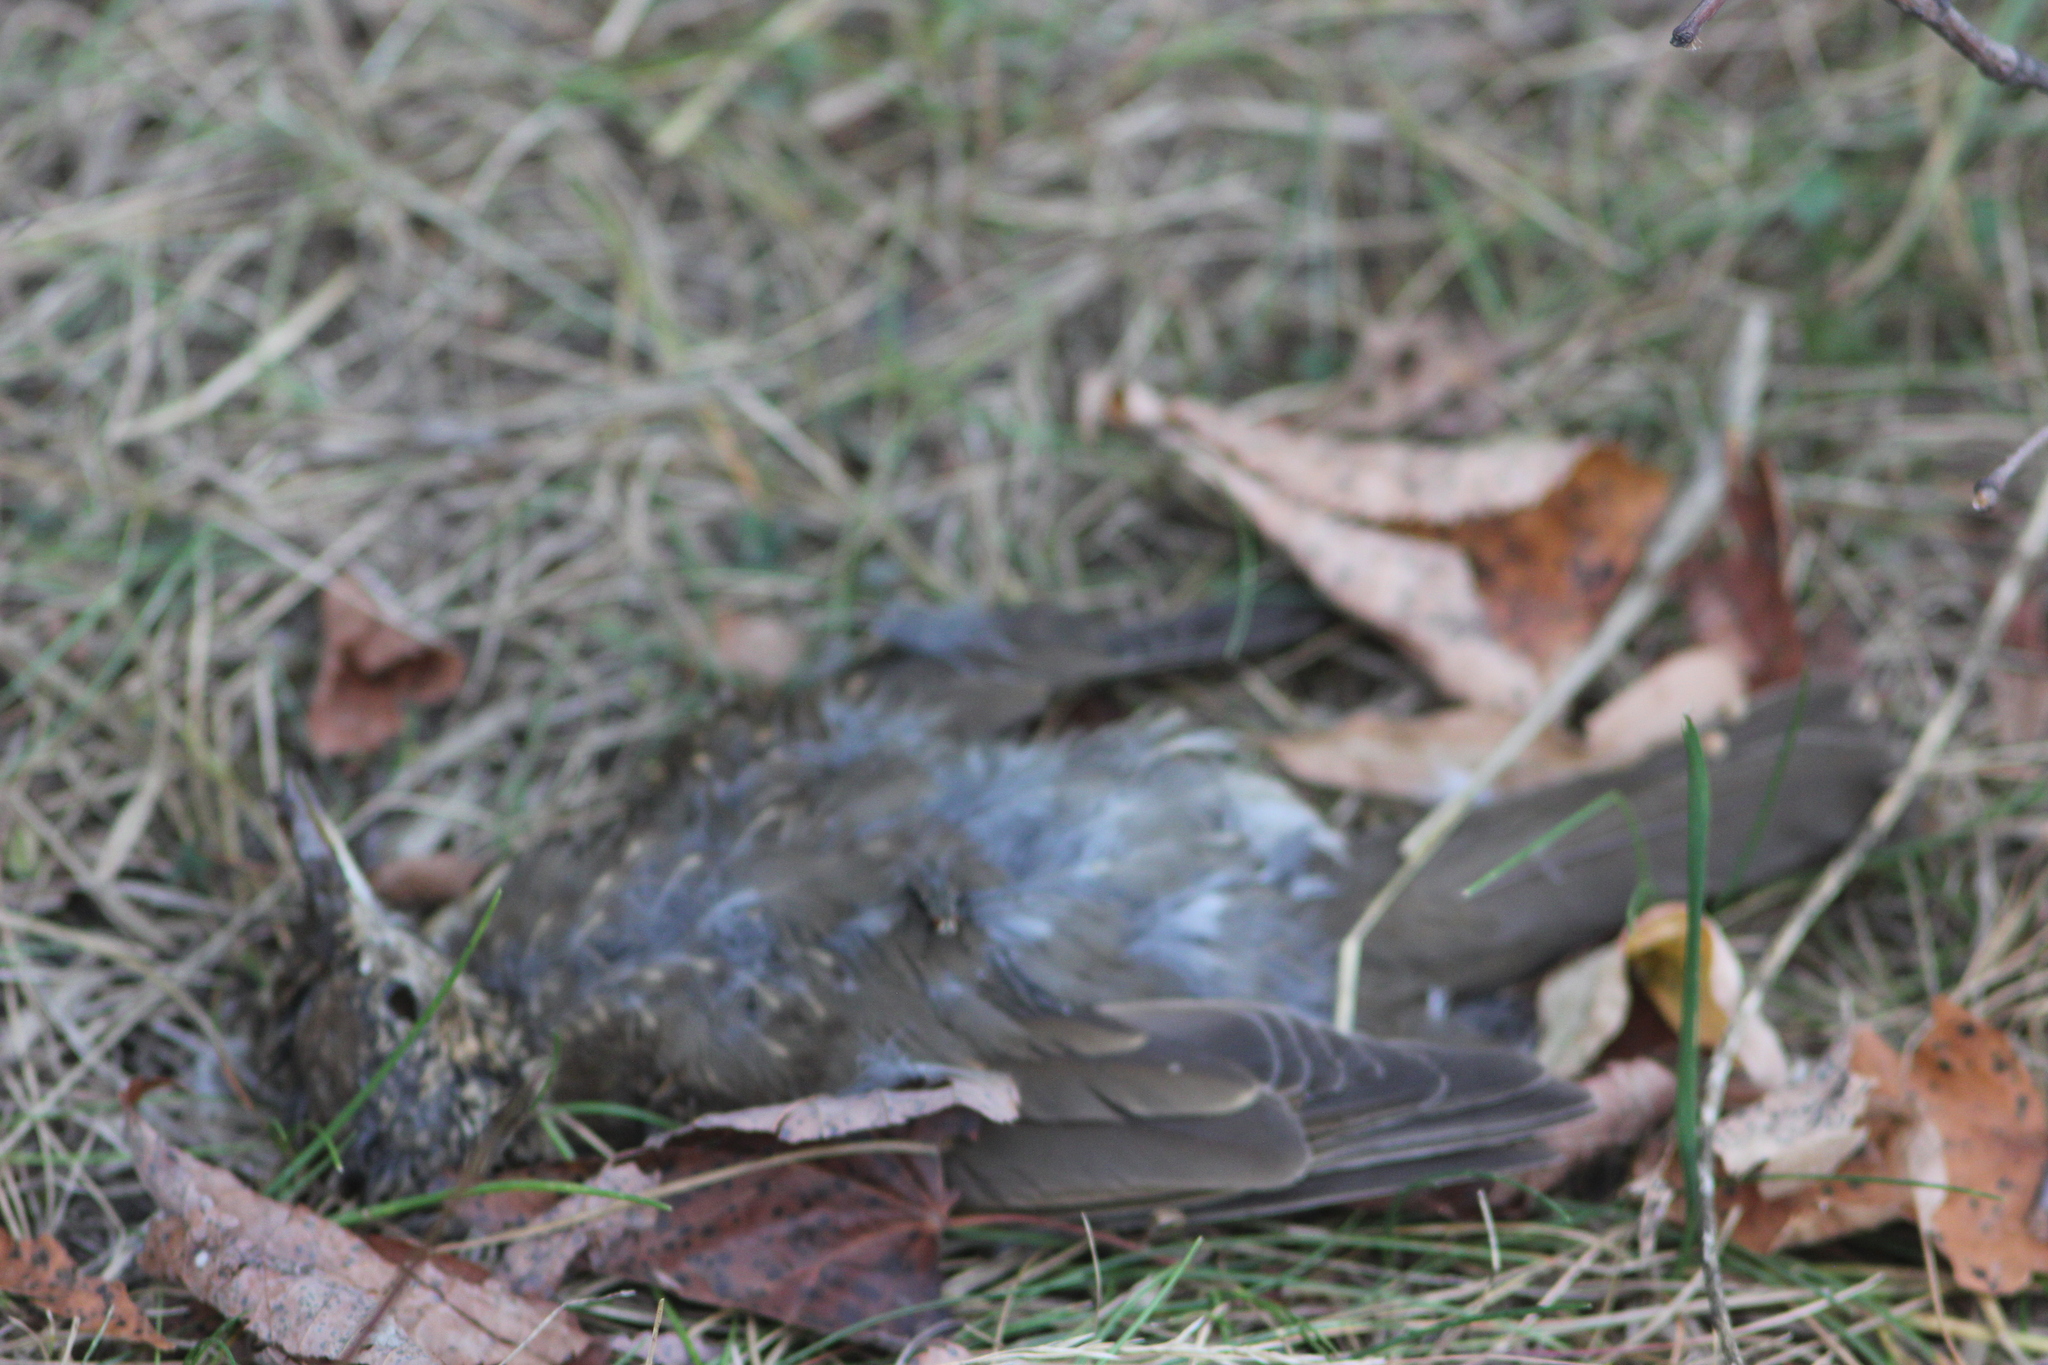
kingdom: Animalia
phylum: Chordata
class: Aves
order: Passeriformes
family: Turdidae
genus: Turdus
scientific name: Turdus philomelos
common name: Song thrush
